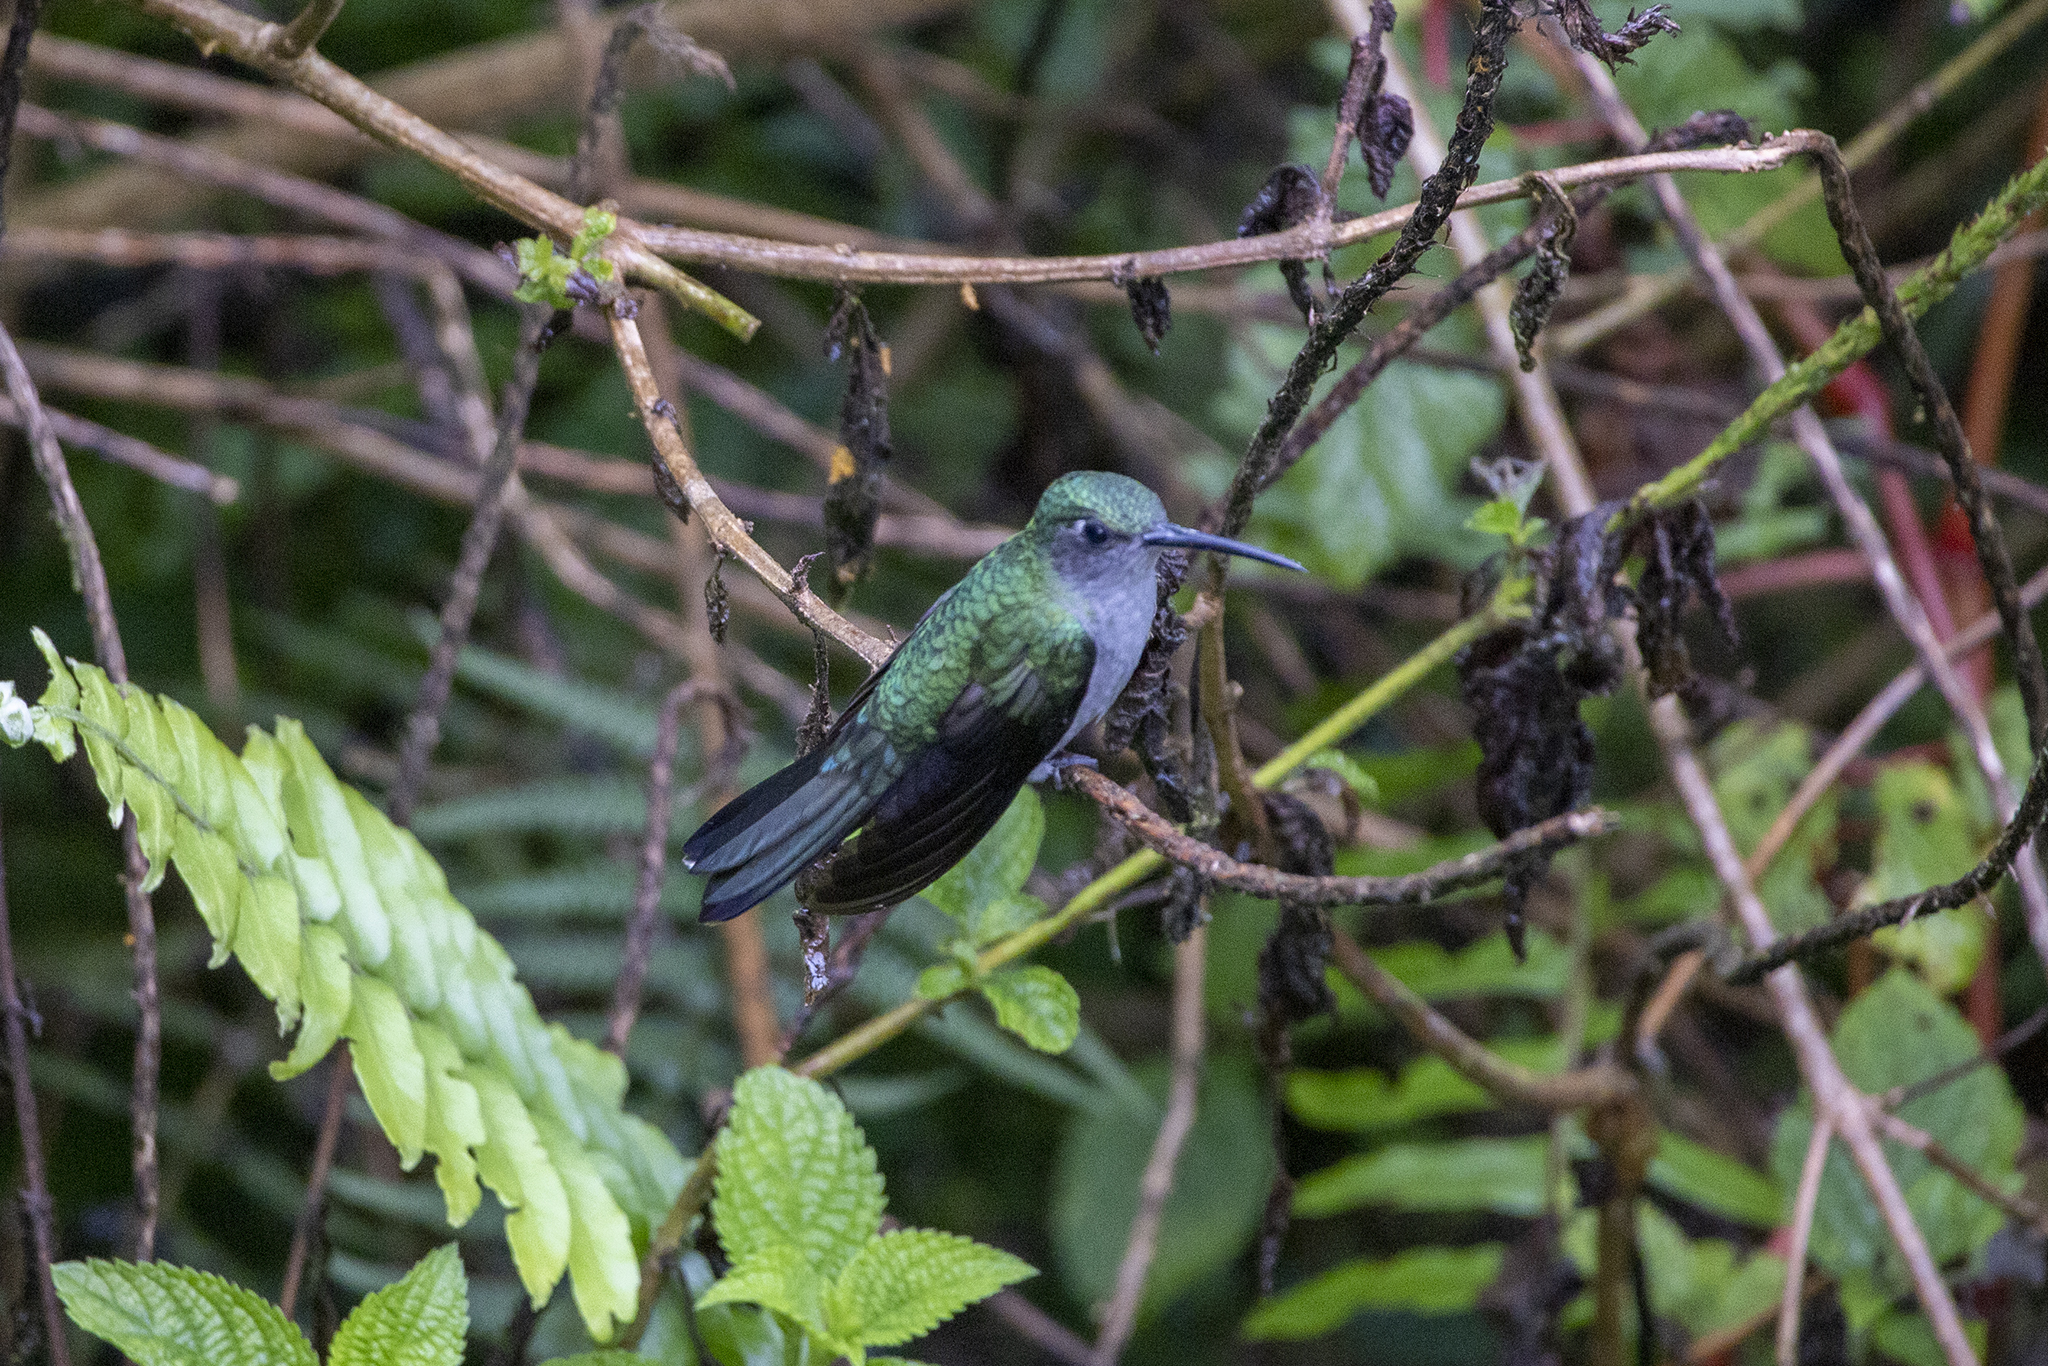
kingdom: Animalia
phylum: Chordata
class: Aves
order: Apodiformes
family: Trochilidae
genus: Campylopterus
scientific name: Campylopterus largipennis
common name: Gray-breasted sabrewing
